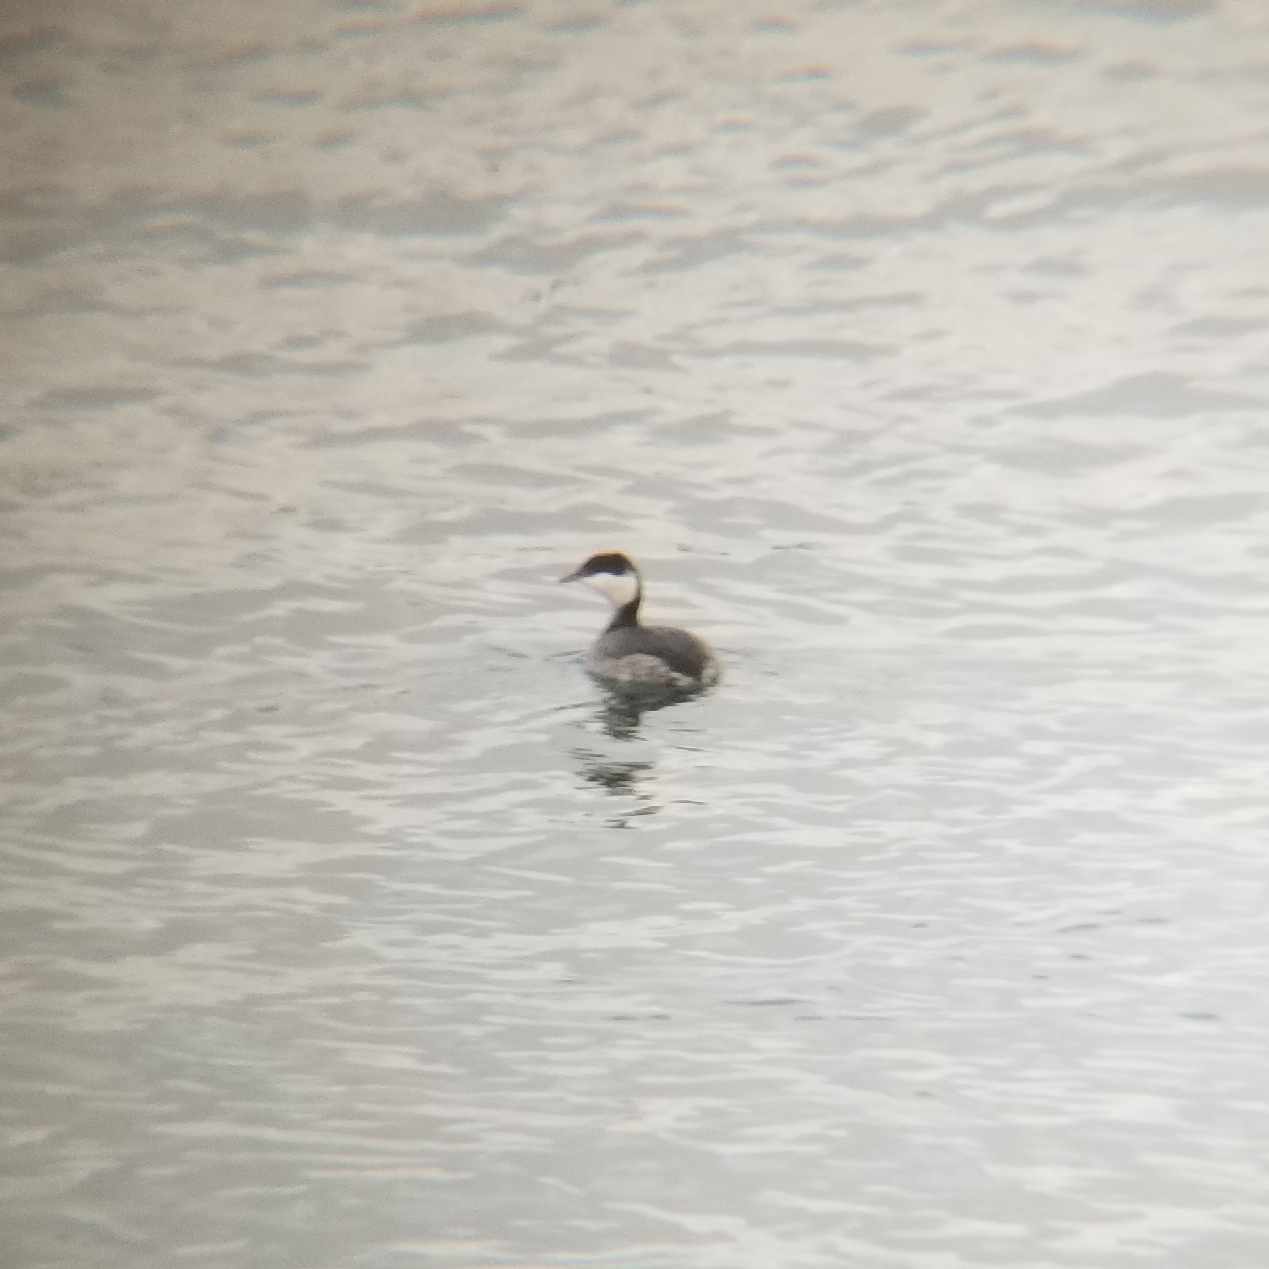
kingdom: Animalia
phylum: Chordata
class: Aves
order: Podicipediformes
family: Podicipedidae
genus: Podiceps
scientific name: Podiceps auritus
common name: Horned grebe
